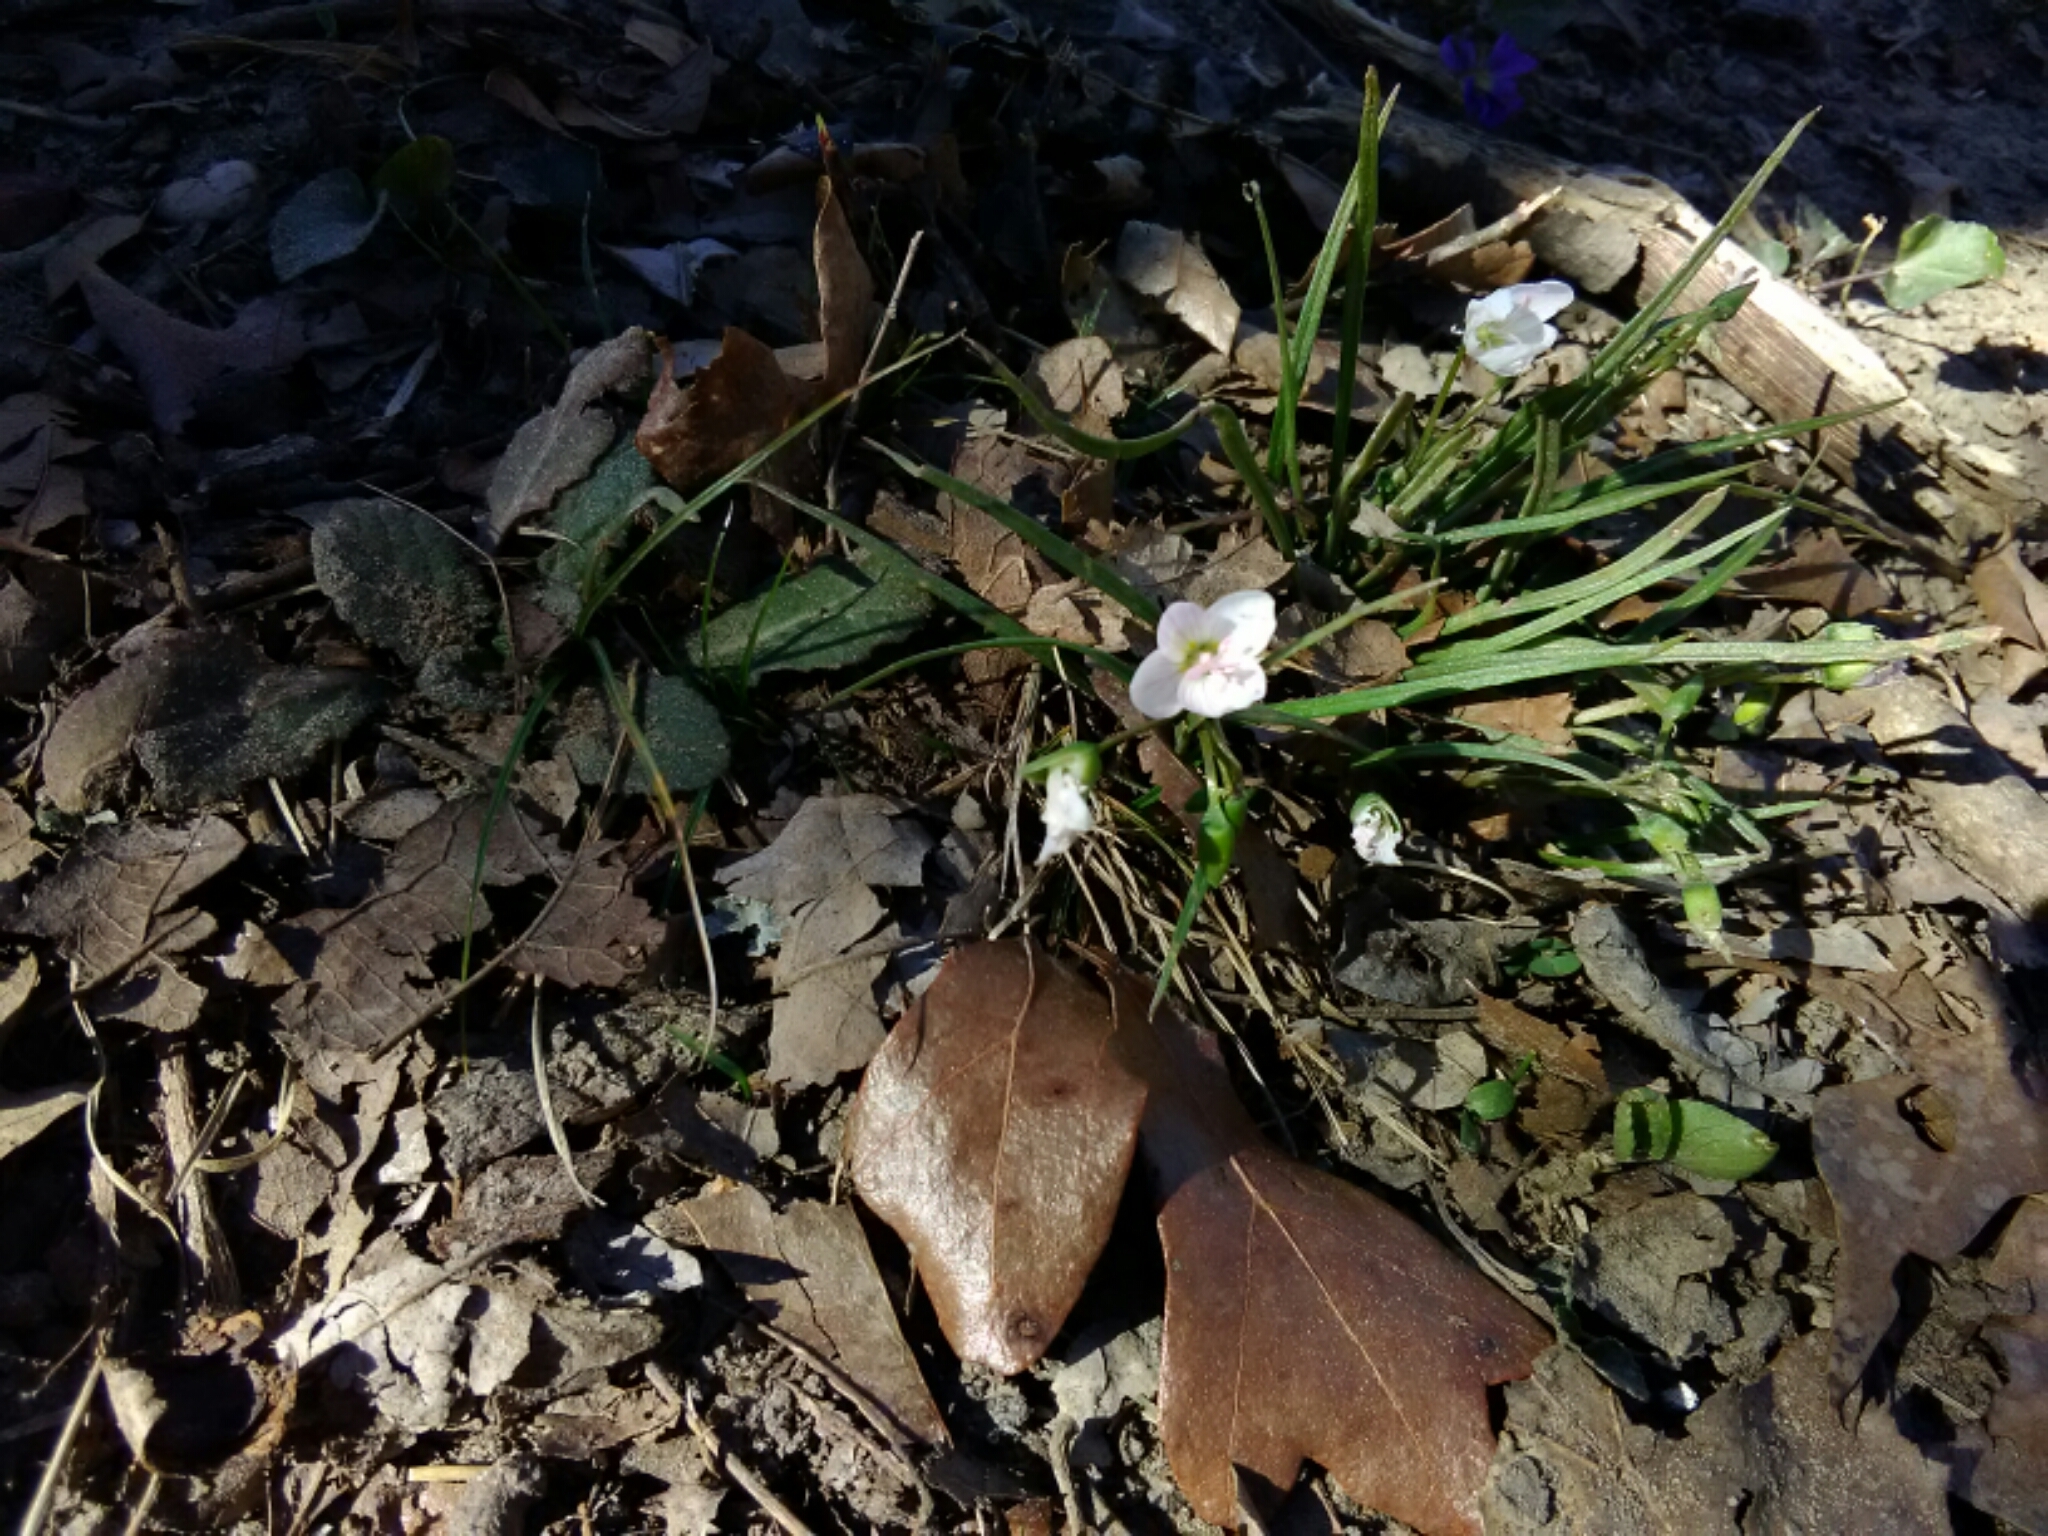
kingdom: Plantae
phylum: Tracheophyta
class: Magnoliopsida
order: Caryophyllales
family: Montiaceae
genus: Claytonia
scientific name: Claytonia virginica
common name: Virginia springbeauty
